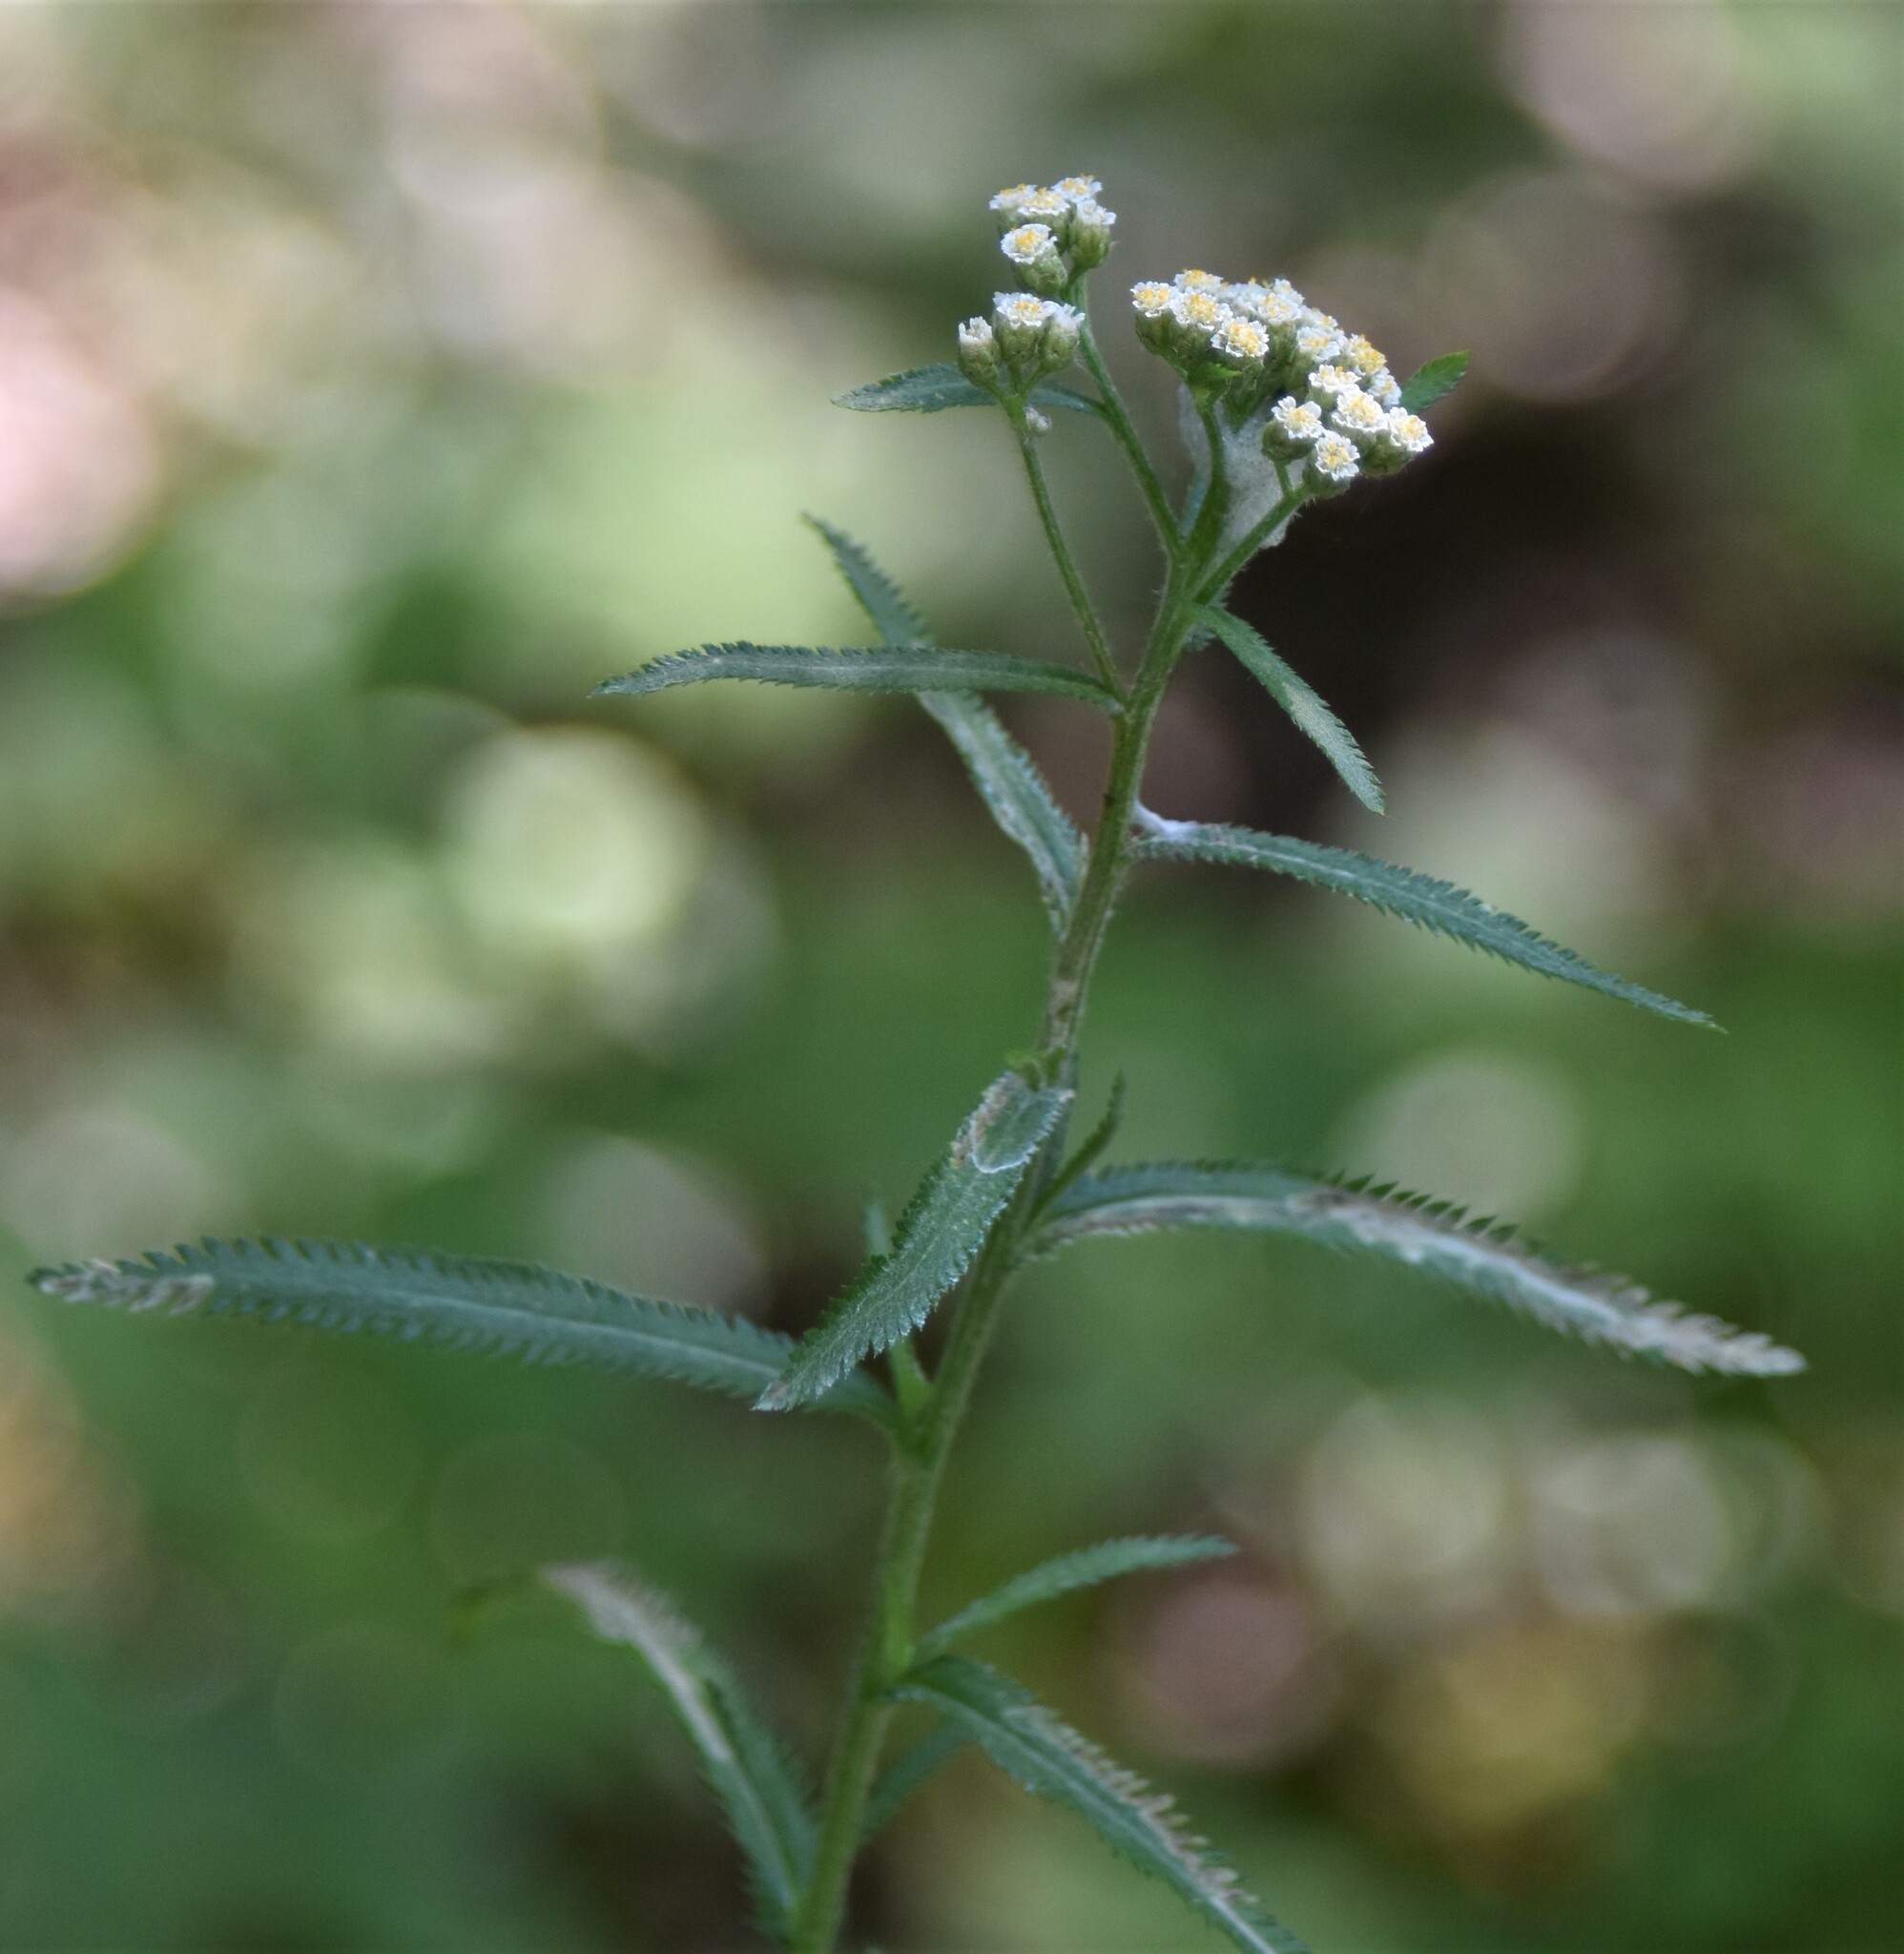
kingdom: Plantae
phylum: Tracheophyta
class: Magnoliopsida
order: Asterales
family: Asteraceae
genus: Achillea
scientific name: Achillea alpina
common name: Siberian yarrow
